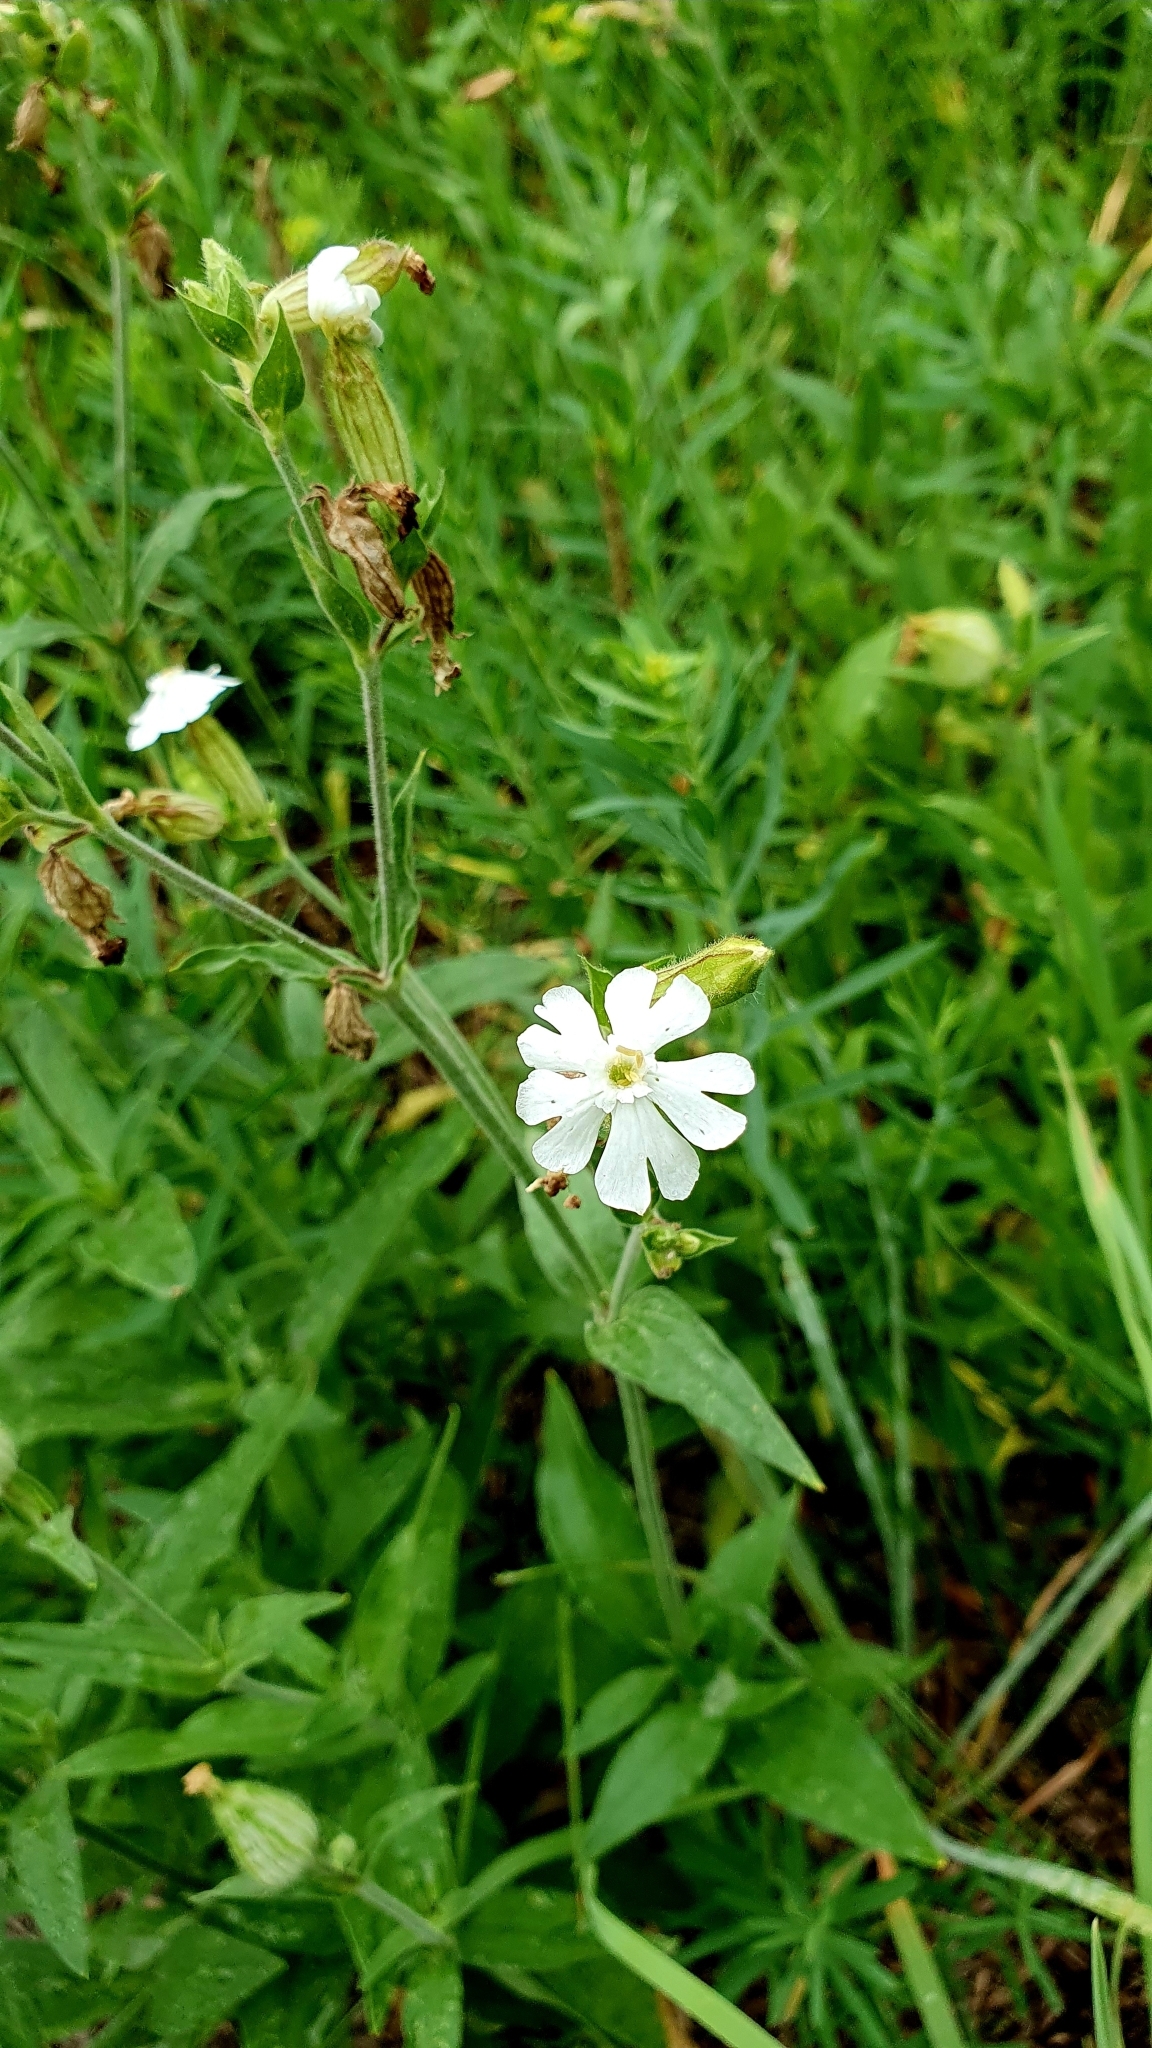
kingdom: Plantae
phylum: Tracheophyta
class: Magnoliopsida
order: Caryophyllales
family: Caryophyllaceae
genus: Silene
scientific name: Silene latifolia
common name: White campion
